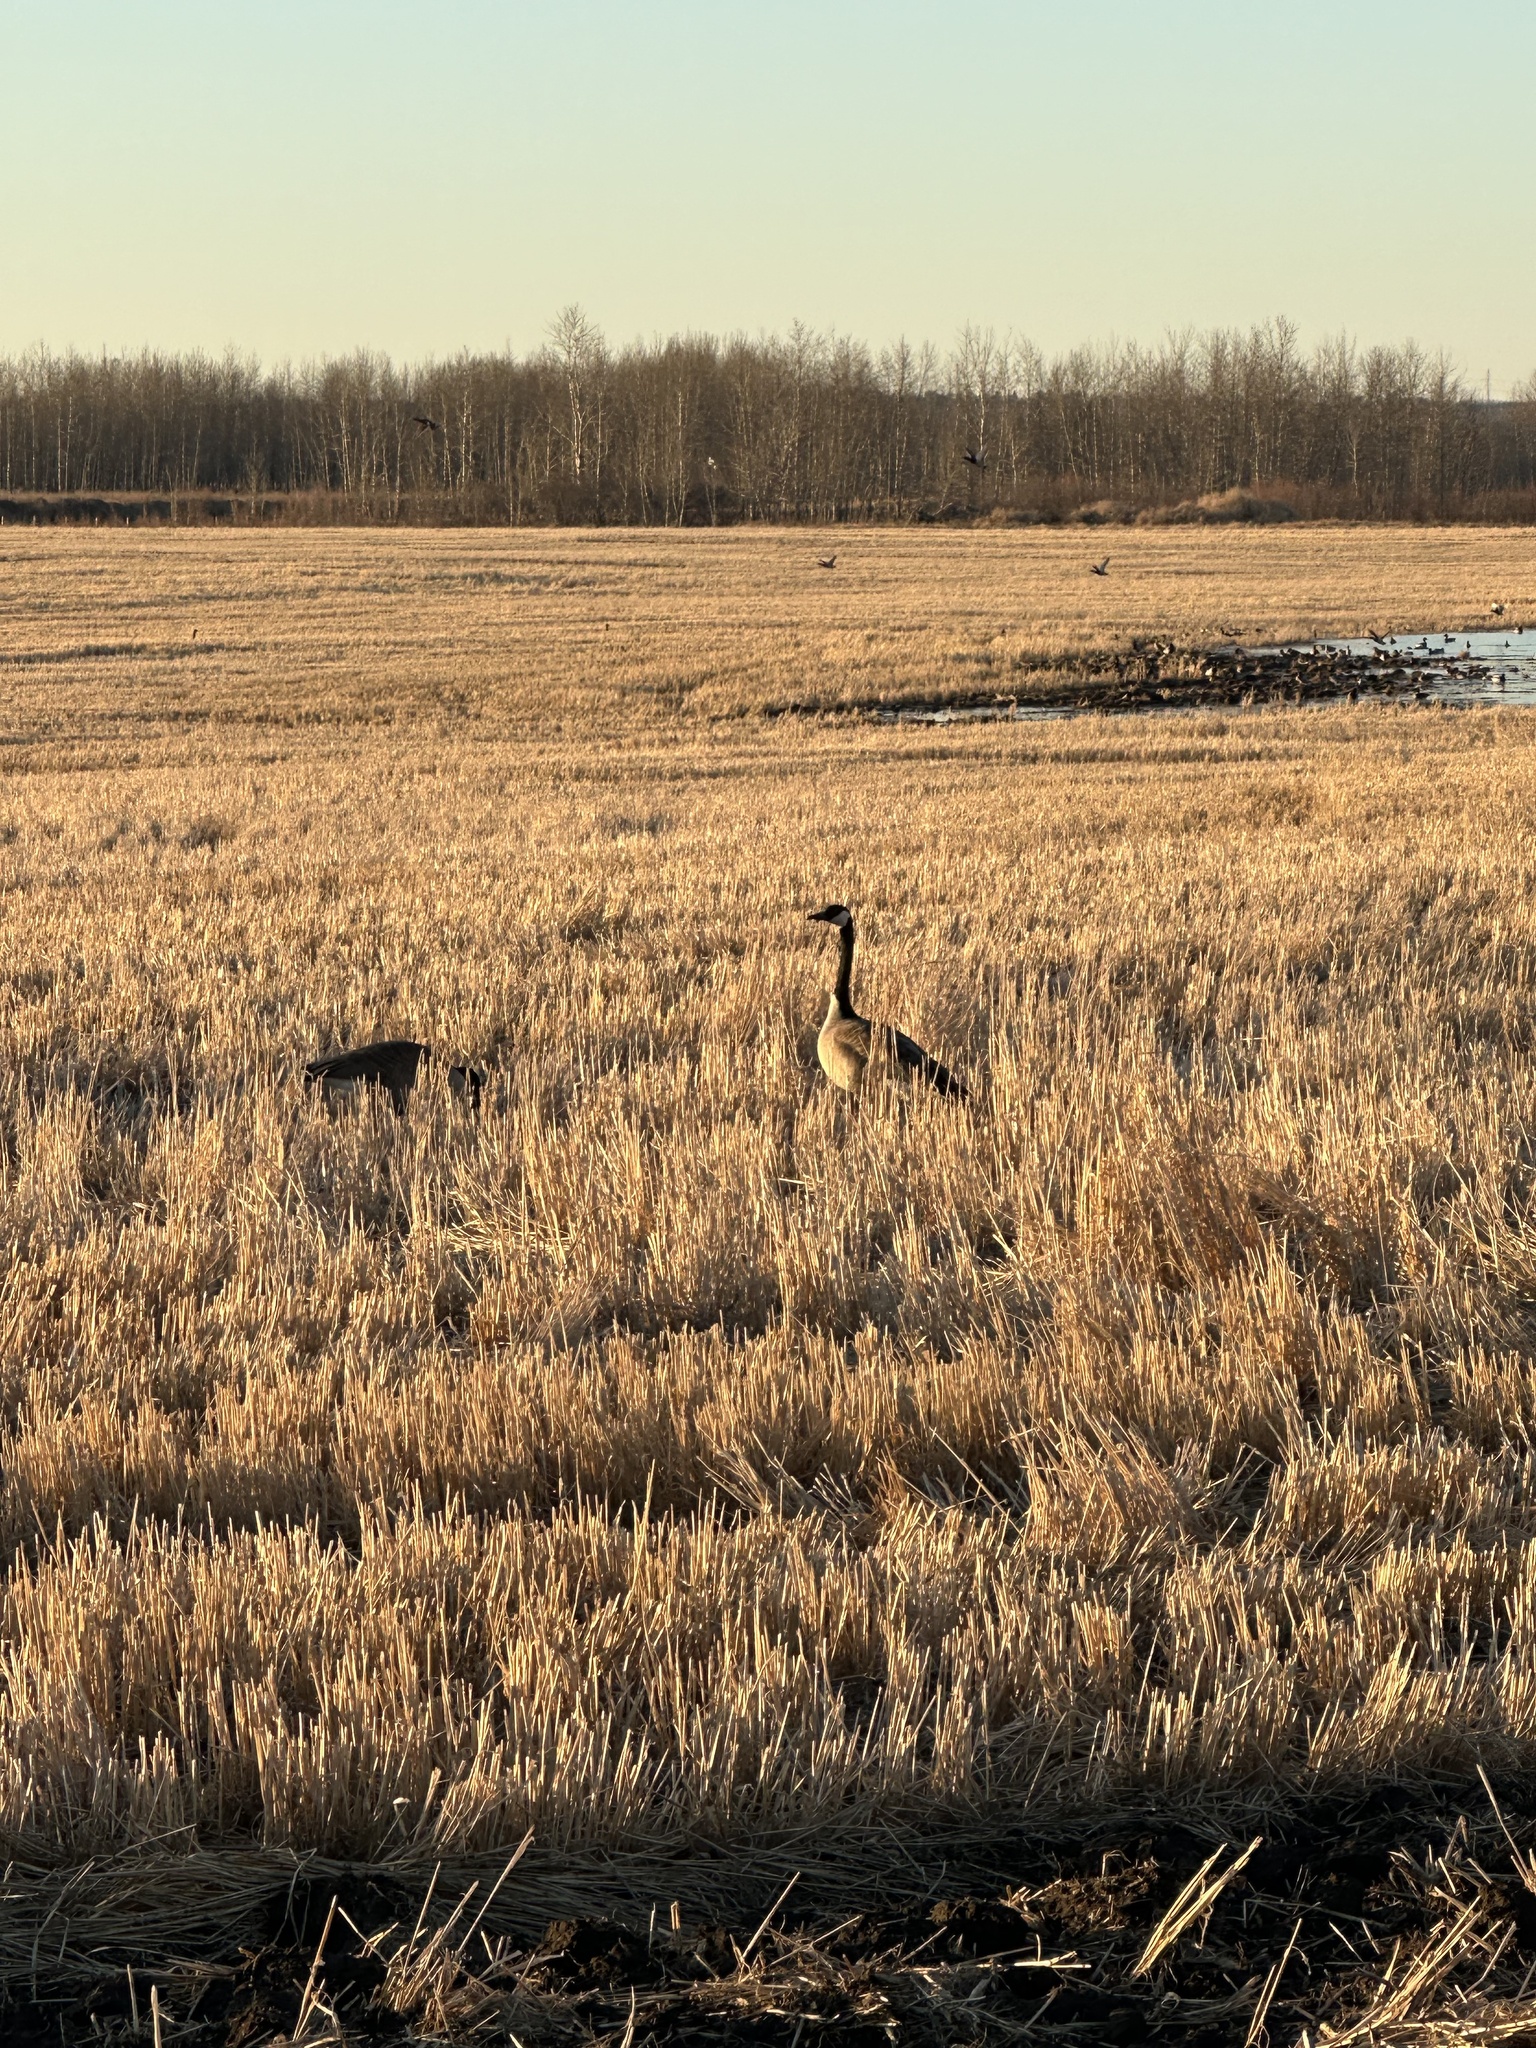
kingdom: Animalia
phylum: Chordata
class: Aves
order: Anseriformes
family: Anatidae
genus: Branta
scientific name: Branta canadensis
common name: Canada goose
